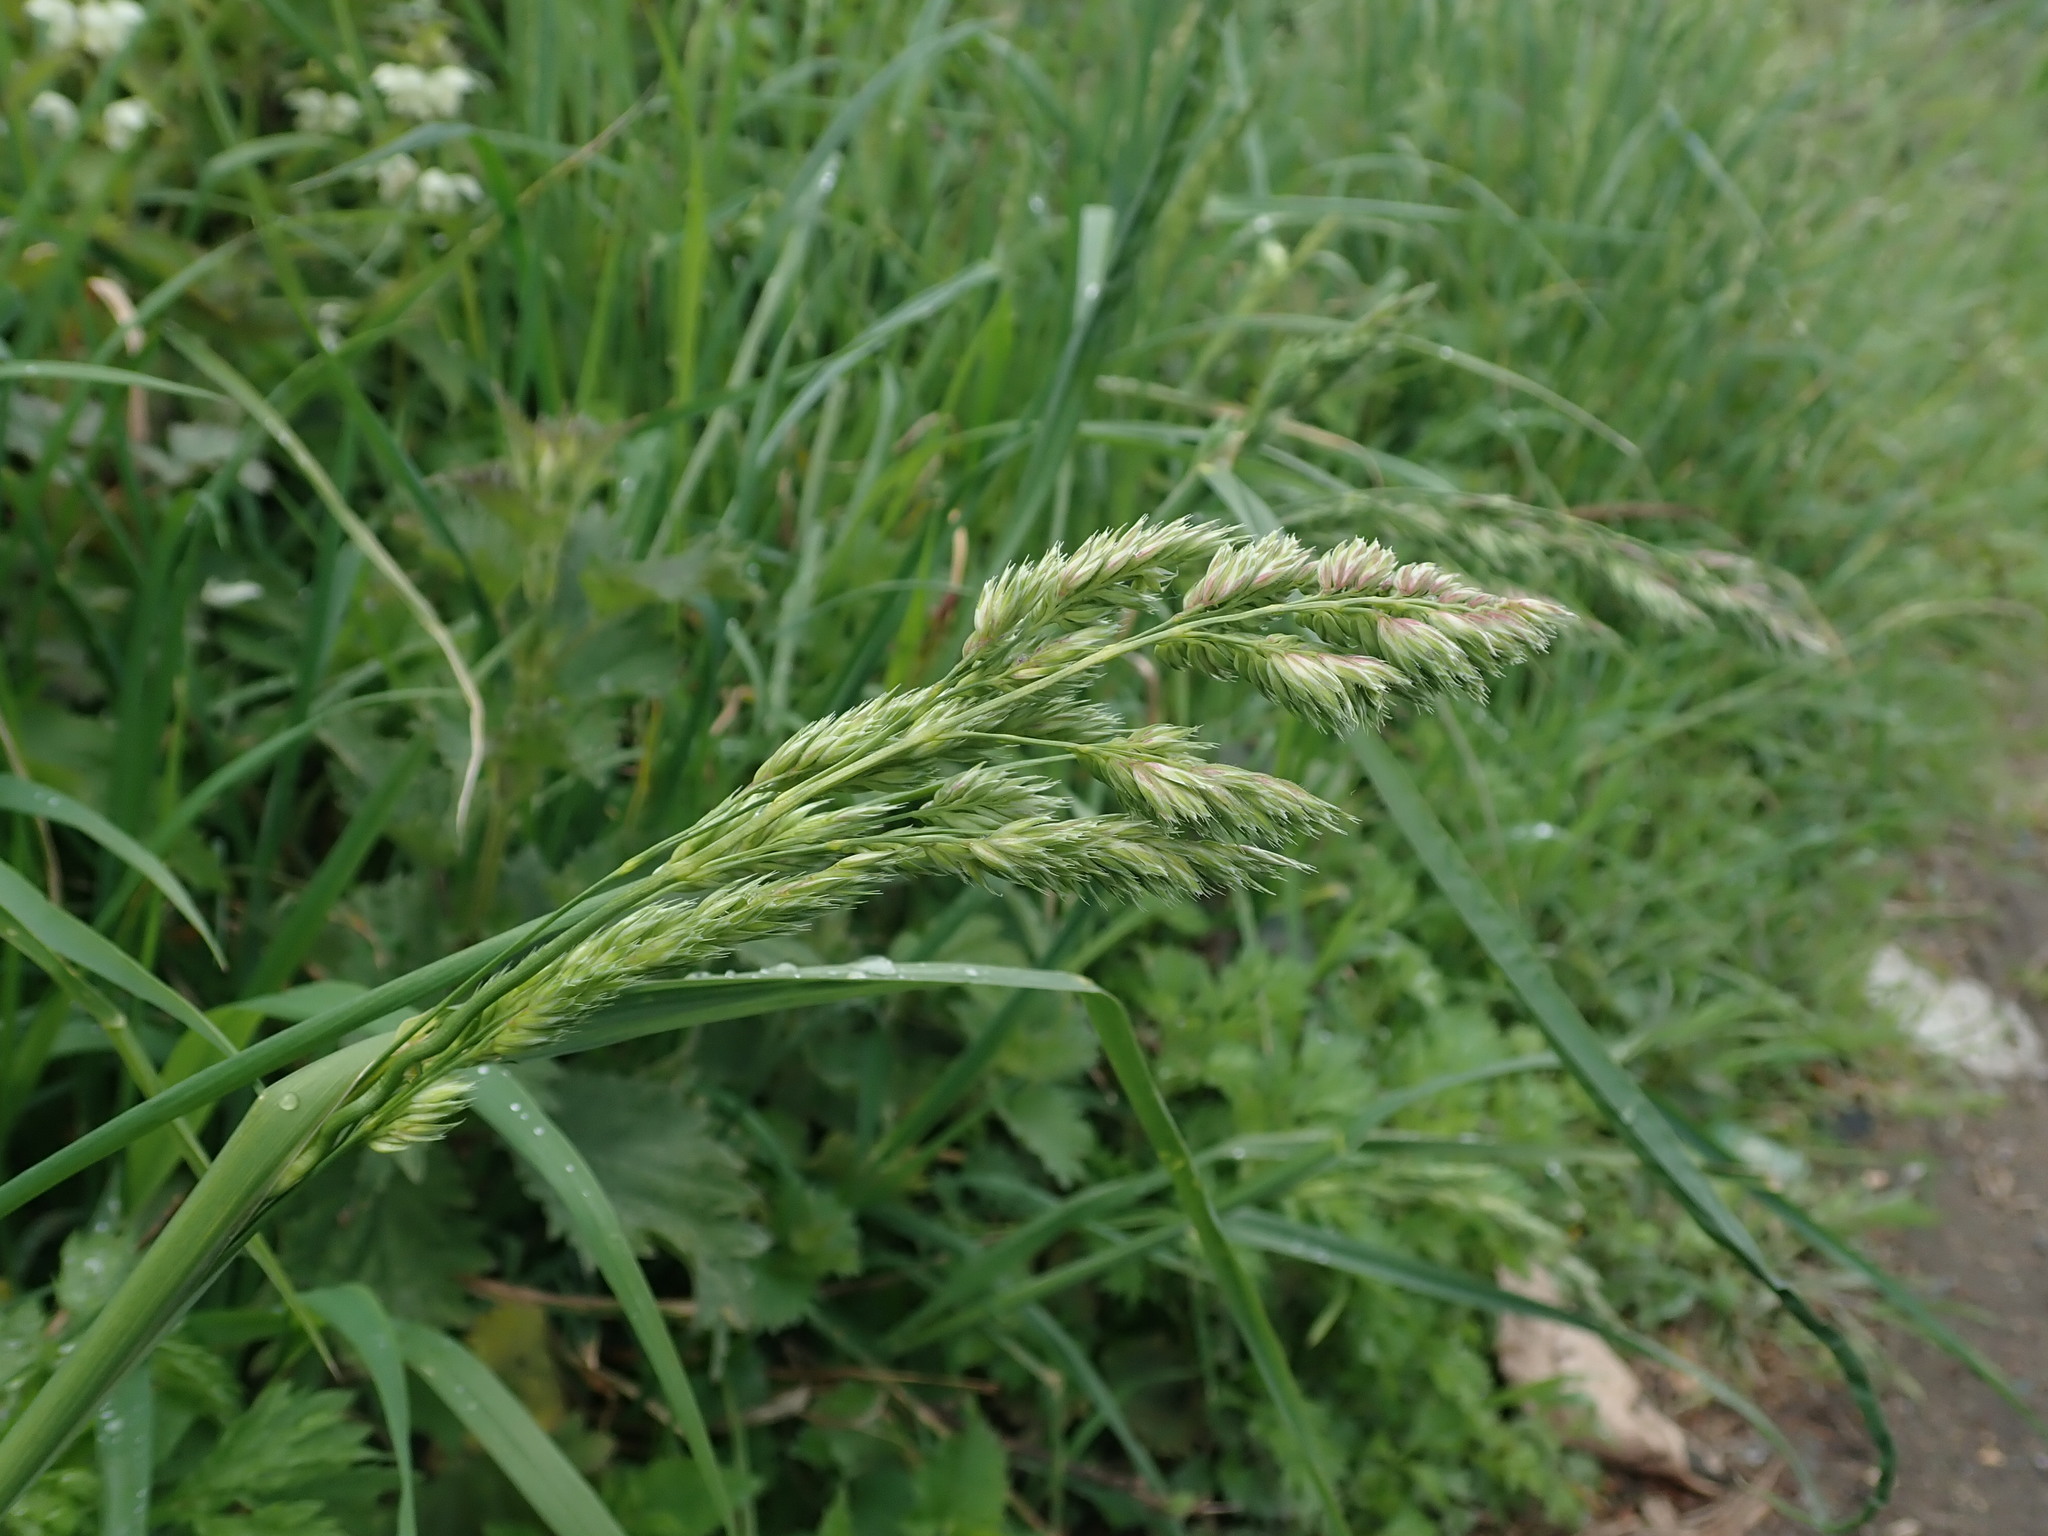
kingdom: Plantae
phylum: Tracheophyta
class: Liliopsida
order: Poales
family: Poaceae
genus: Dactylis
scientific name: Dactylis glomerata
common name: Orchardgrass
